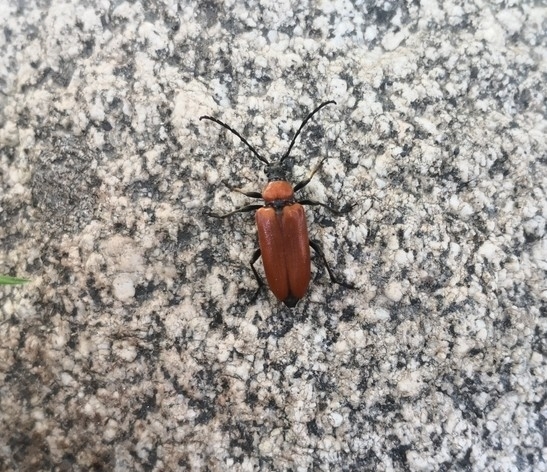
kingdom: Animalia
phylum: Arthropoda
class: Insecta
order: Coleoptera
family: Cerambycidae
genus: Stictoleptura
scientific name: Stictoleptura fontenayi
